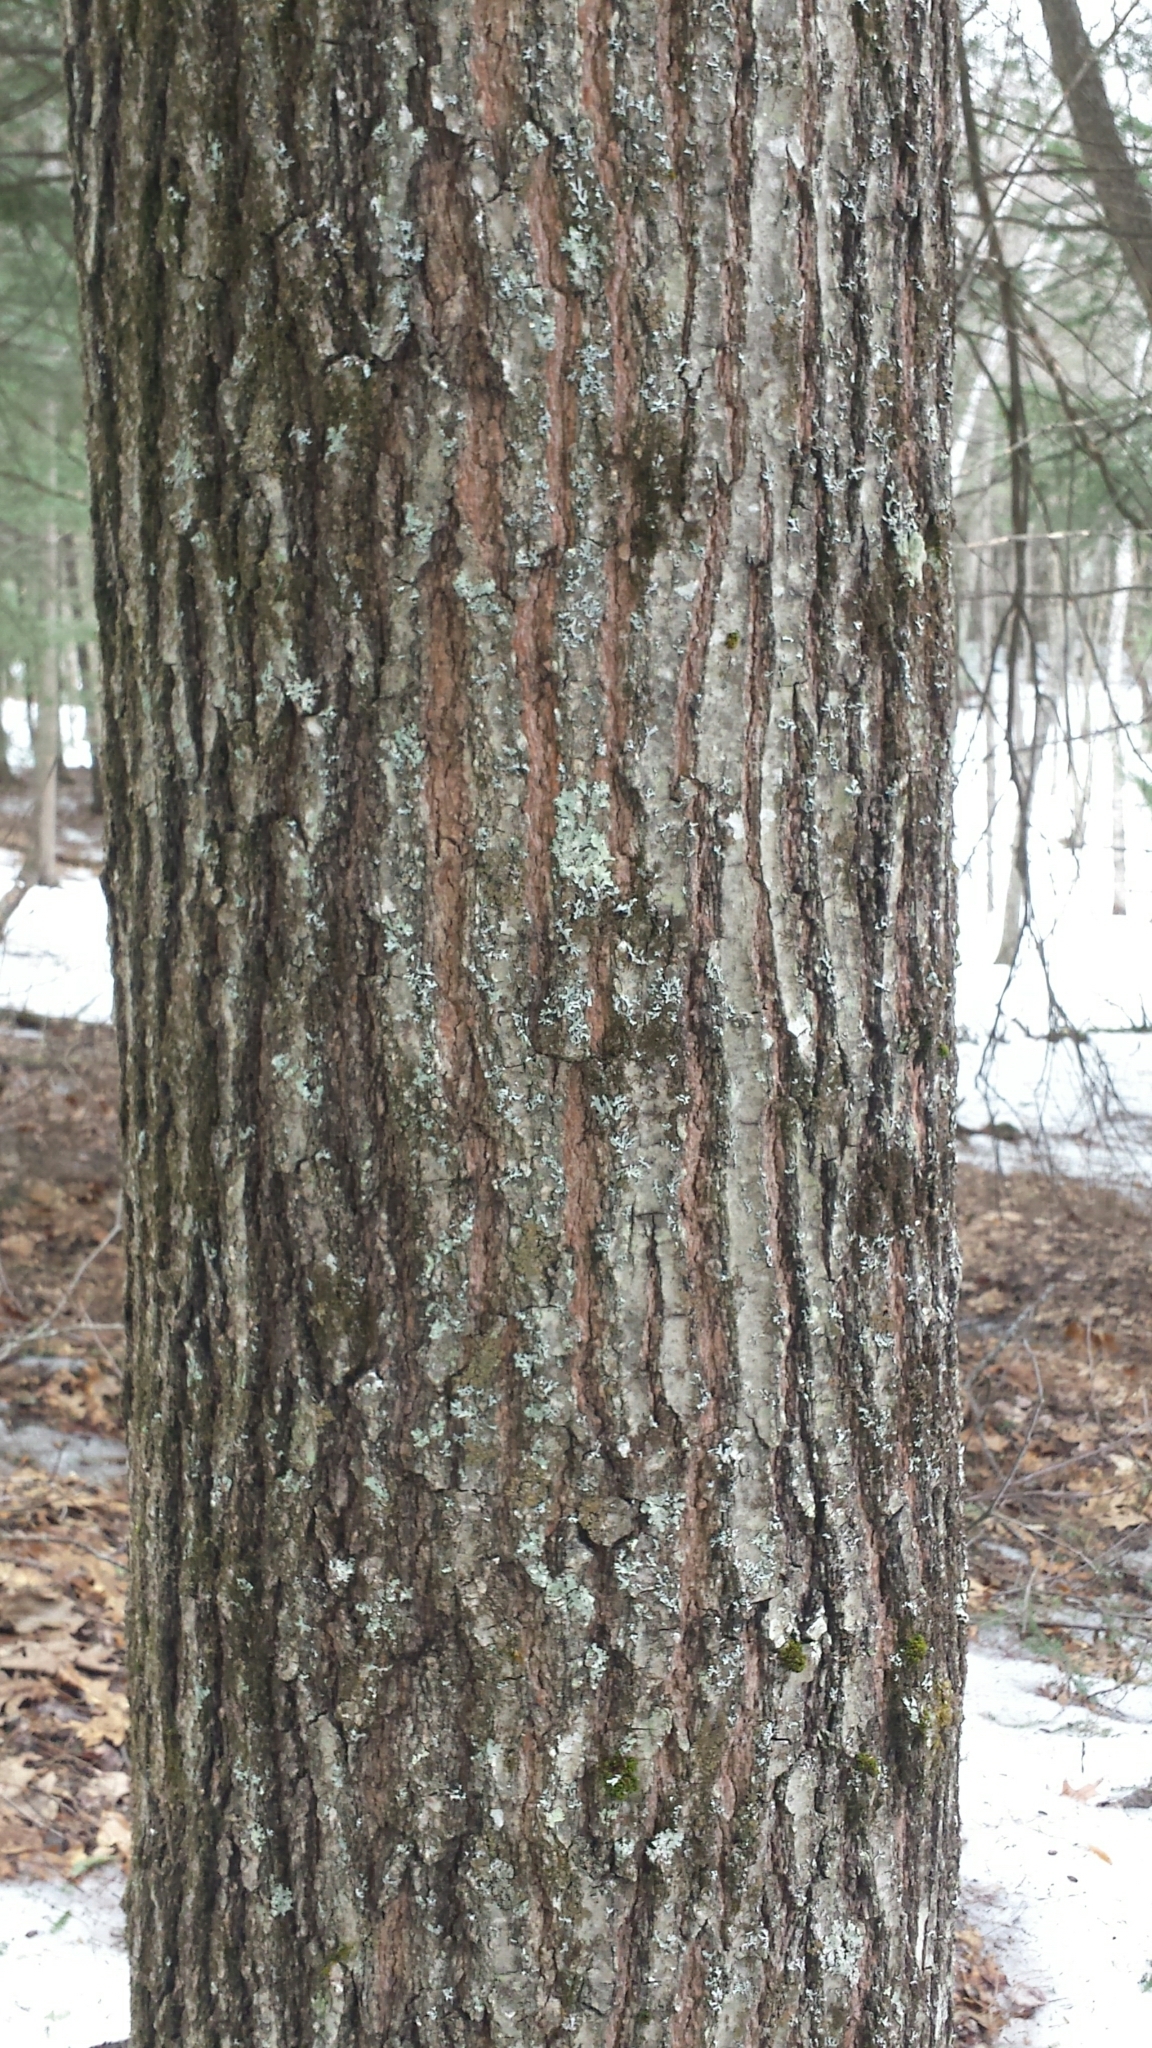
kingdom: Plantae
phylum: Tracheophyta
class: Magnoliopsida
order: Fagales
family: Fagaceae
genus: Quercus
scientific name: Quercus rubra
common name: Red oak
